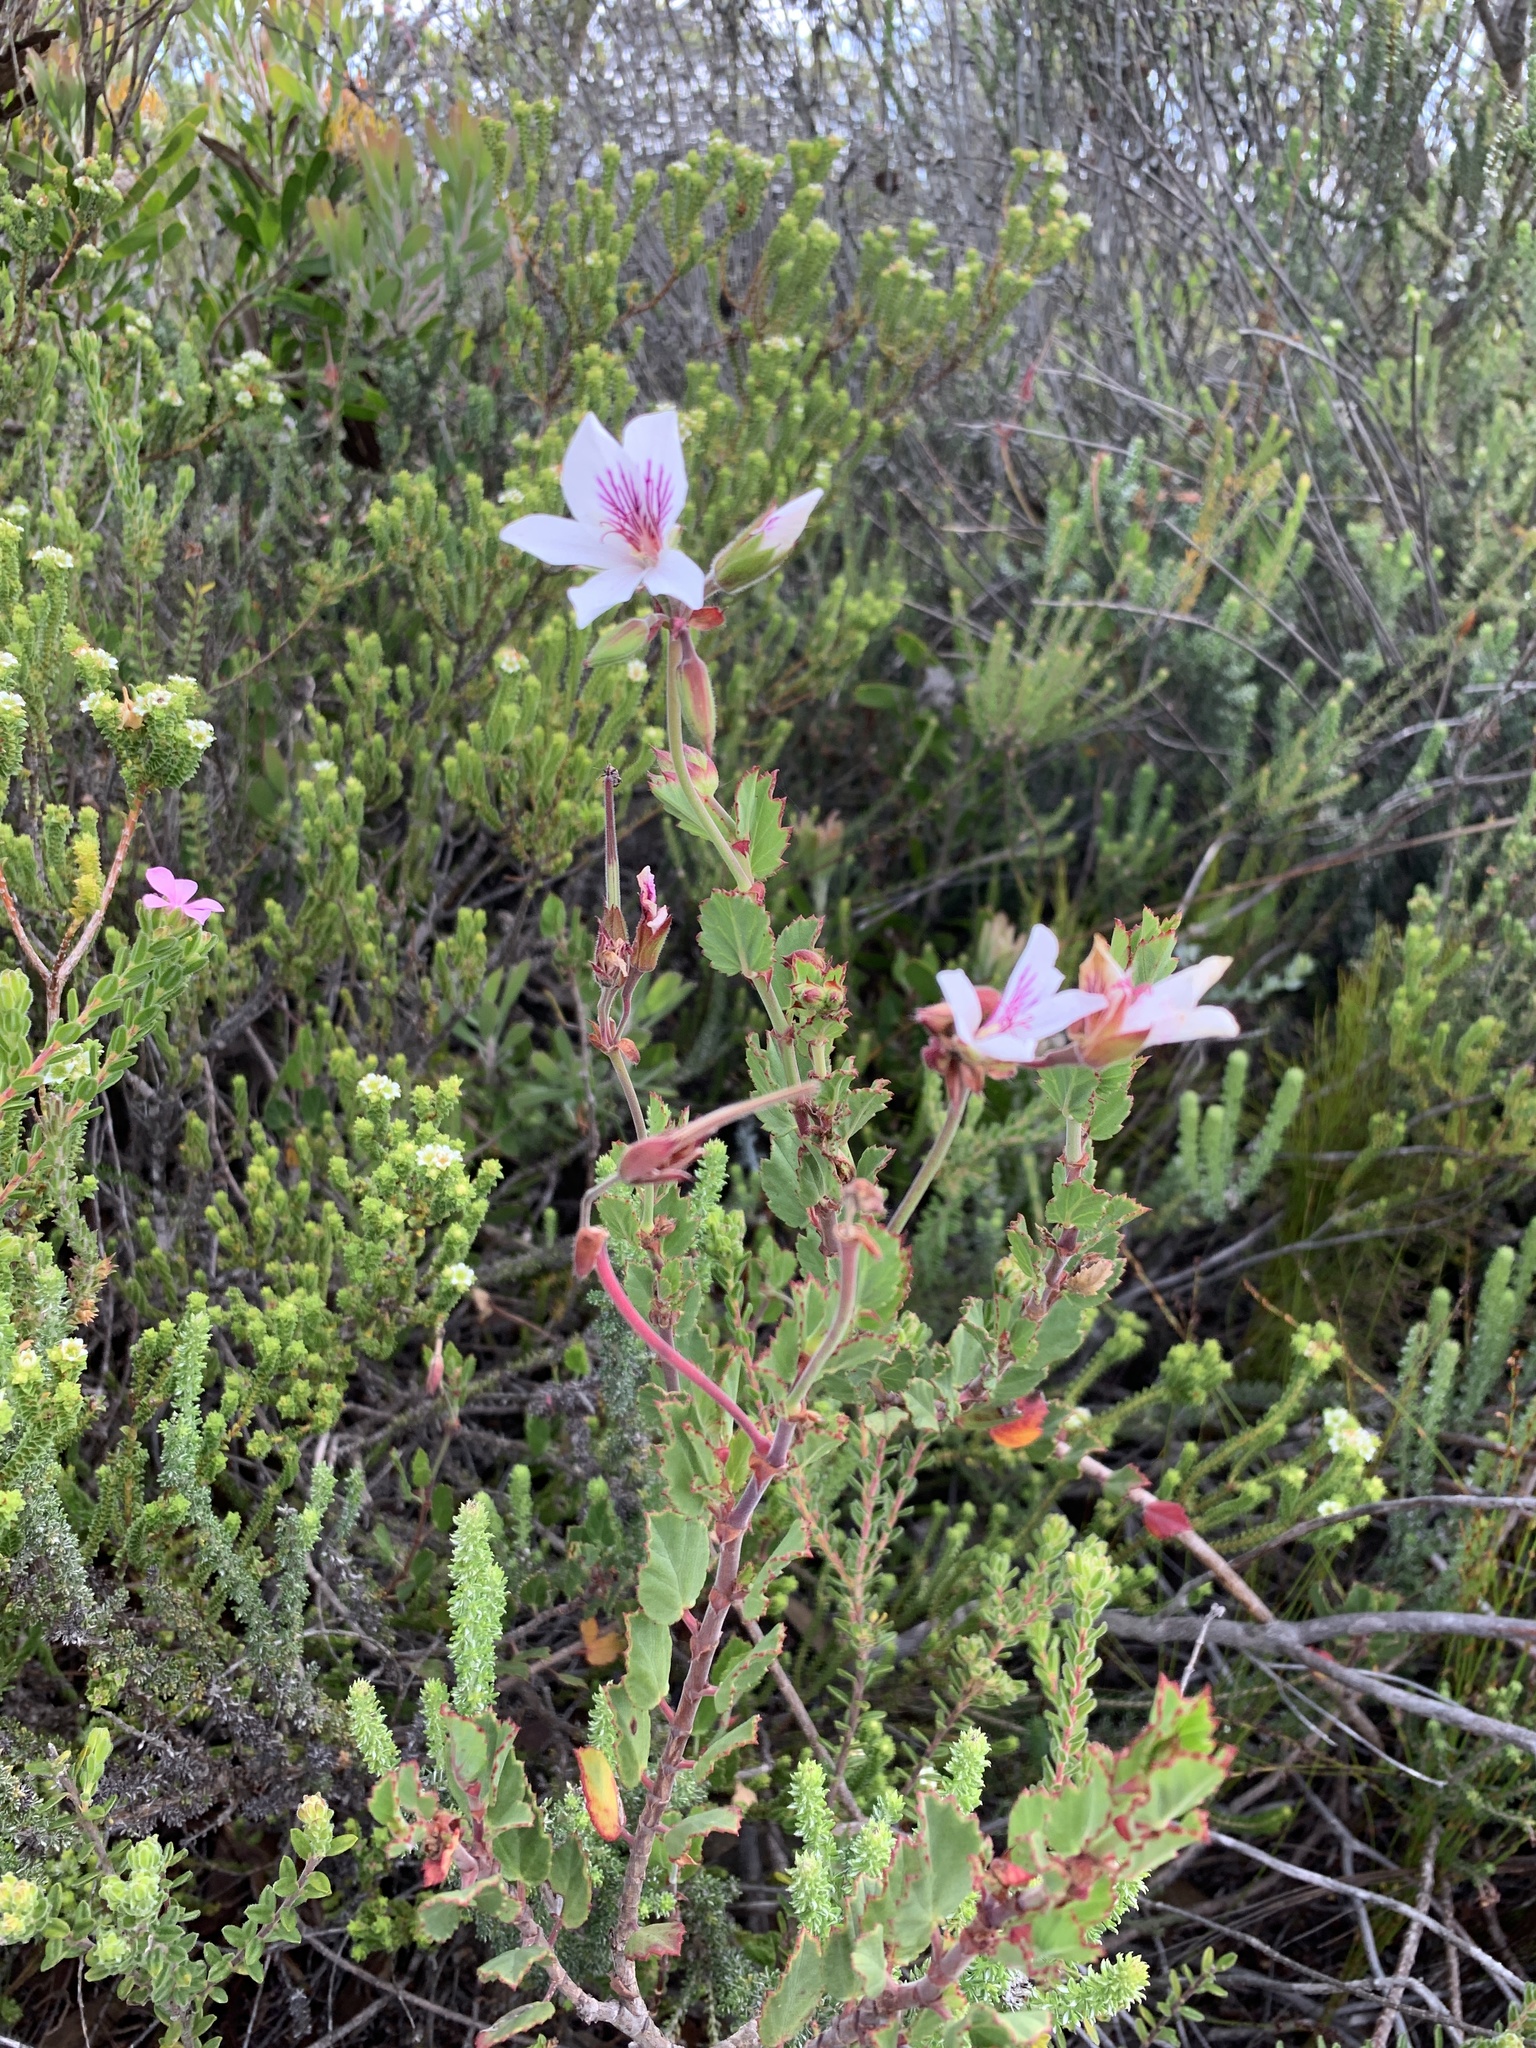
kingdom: Plantae
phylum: Tracheophyta
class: Magnoliopsida
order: Geraniales
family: Geraniaceae
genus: Pelargonium
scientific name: Pelargonium betulinum
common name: Birch-leaf pelargonium
